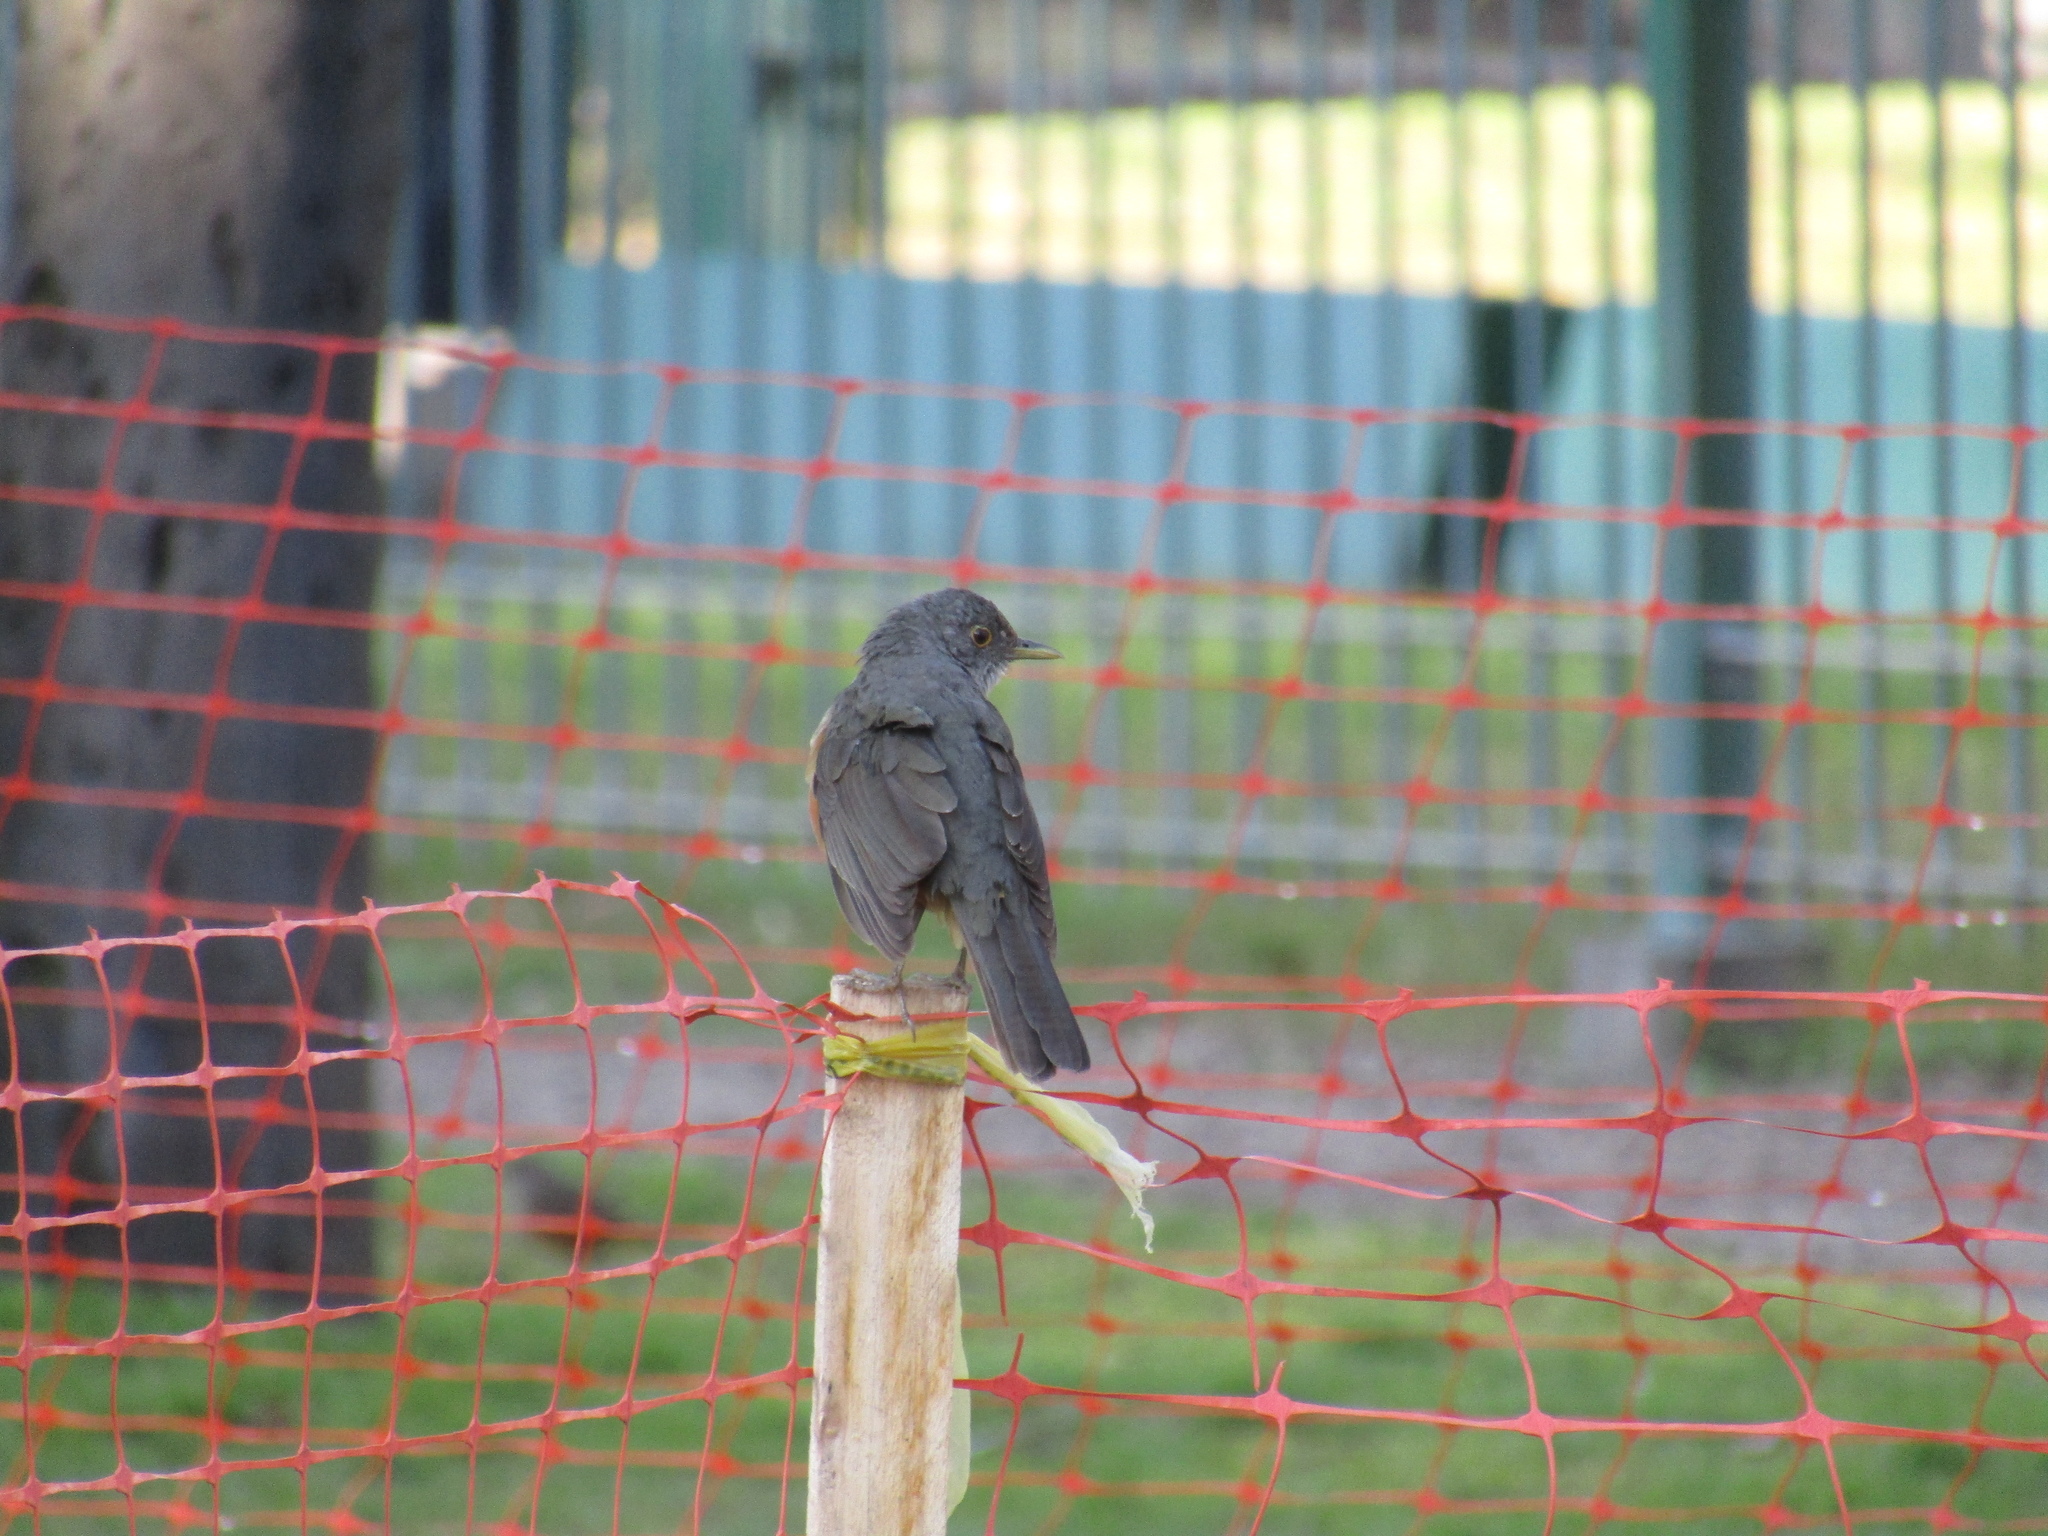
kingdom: Animalia
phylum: Chordata
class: Aves
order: Passeriformes
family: Turdidae
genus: Turdus
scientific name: Turdus rufiventris
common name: Rufous-bellied thrush
